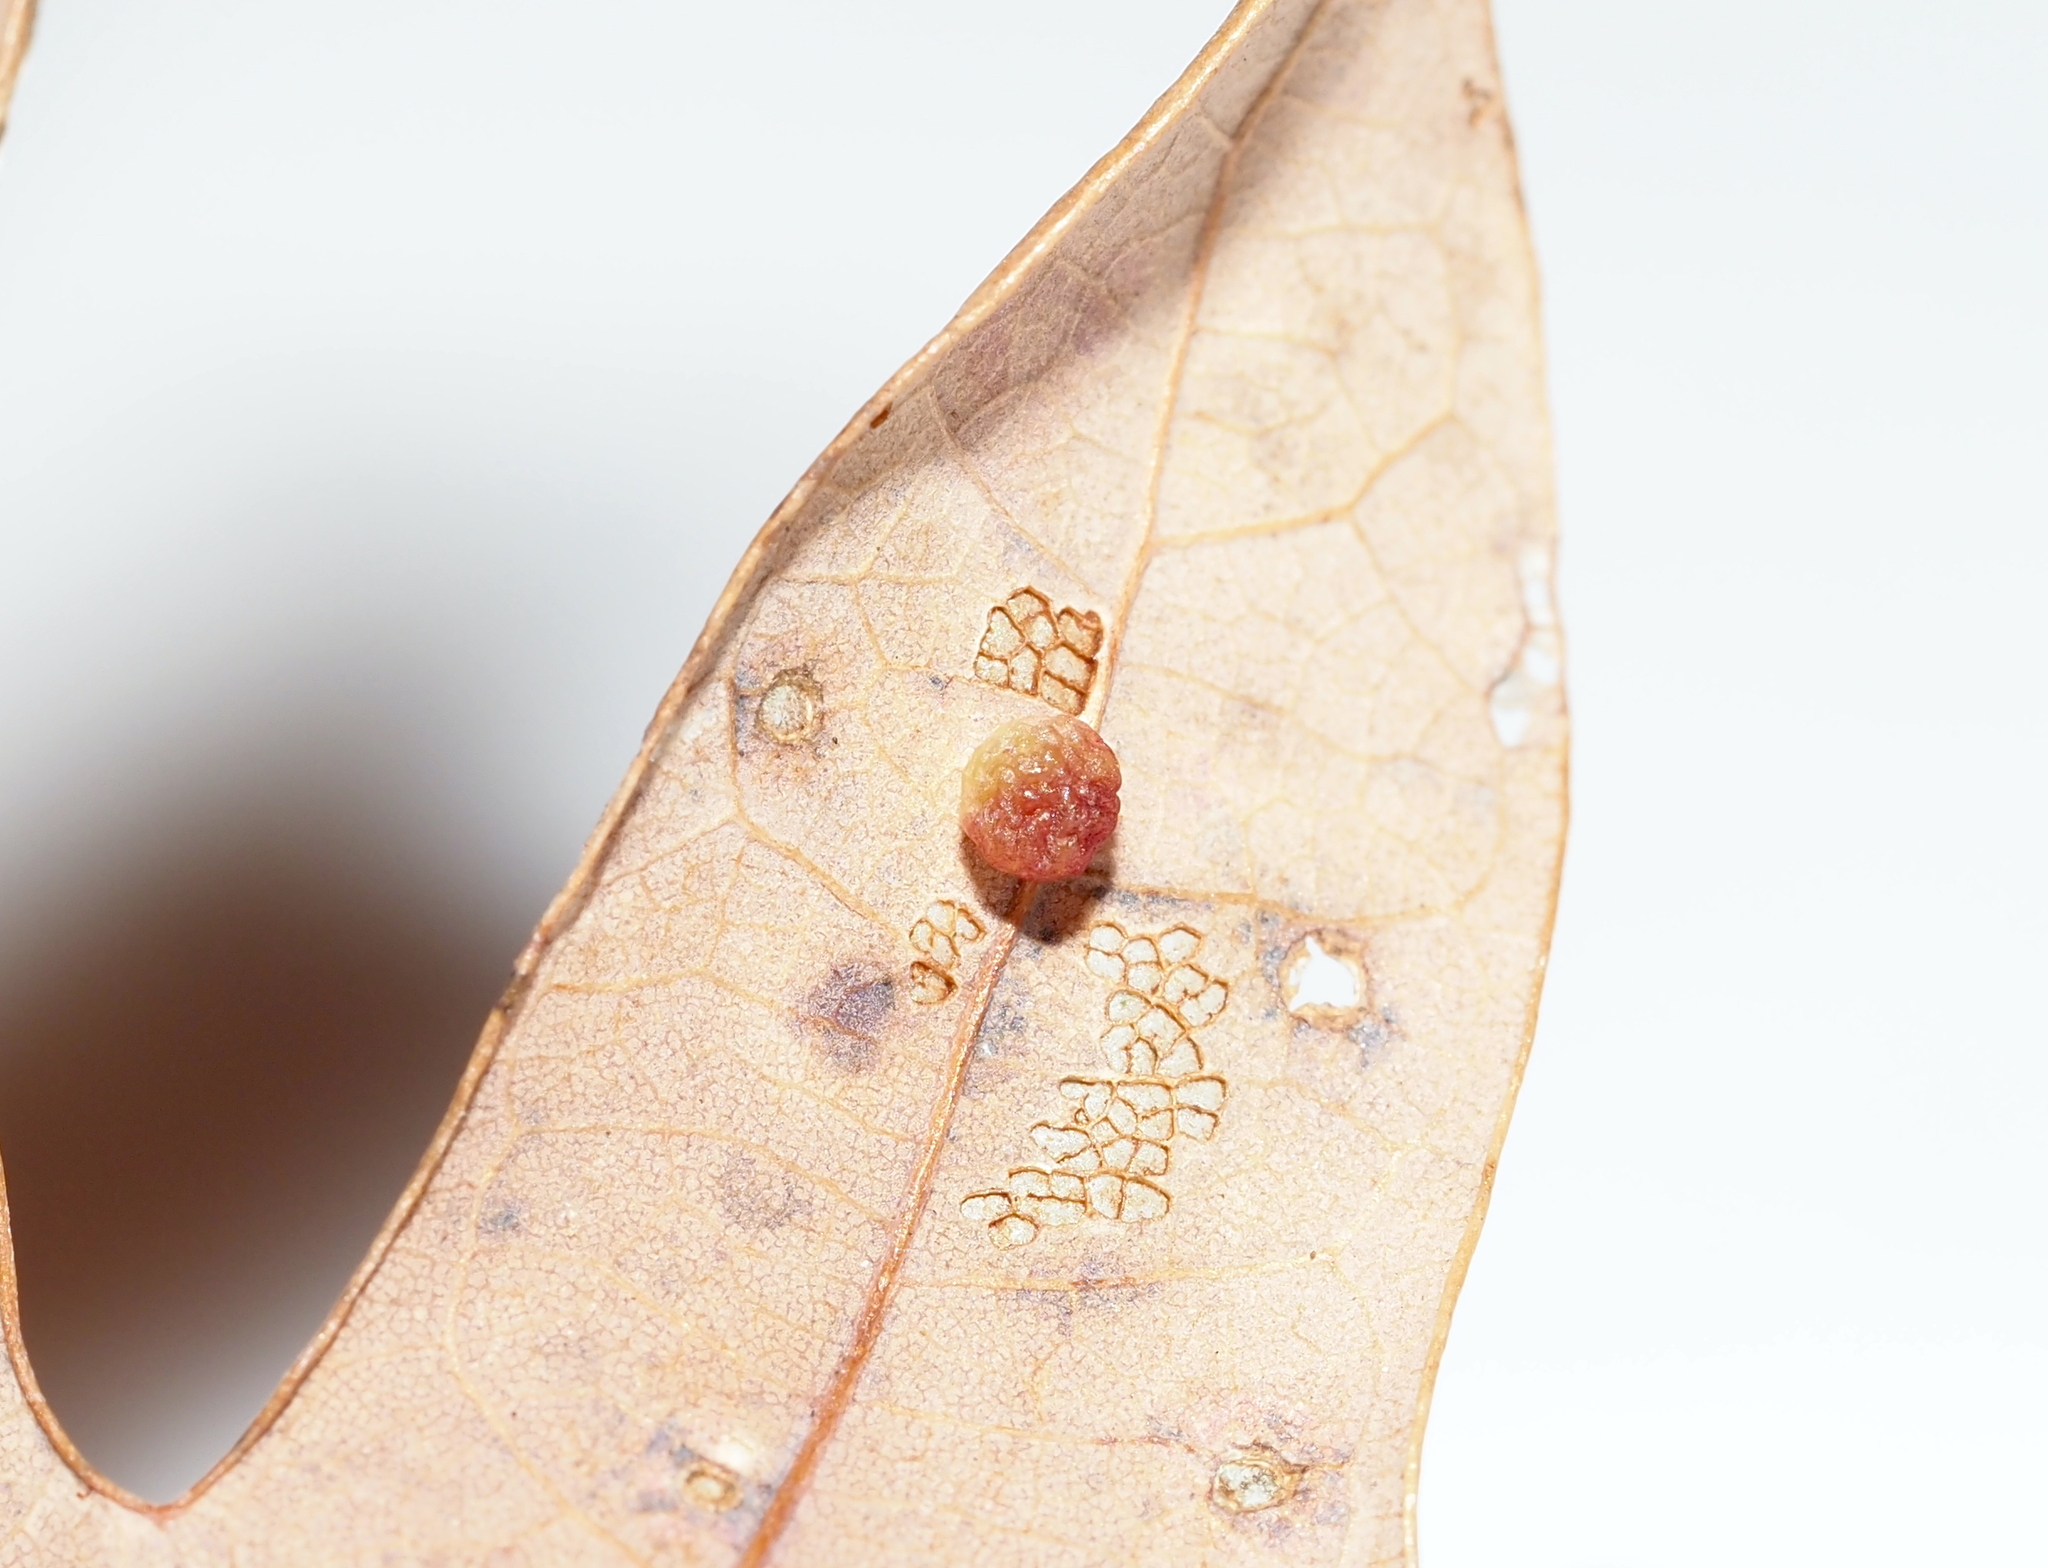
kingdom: Animalia
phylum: Arthropoda
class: Insecta
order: Hymenoptera
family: Cynipidae
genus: Phylloteras
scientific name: Phylloteras
